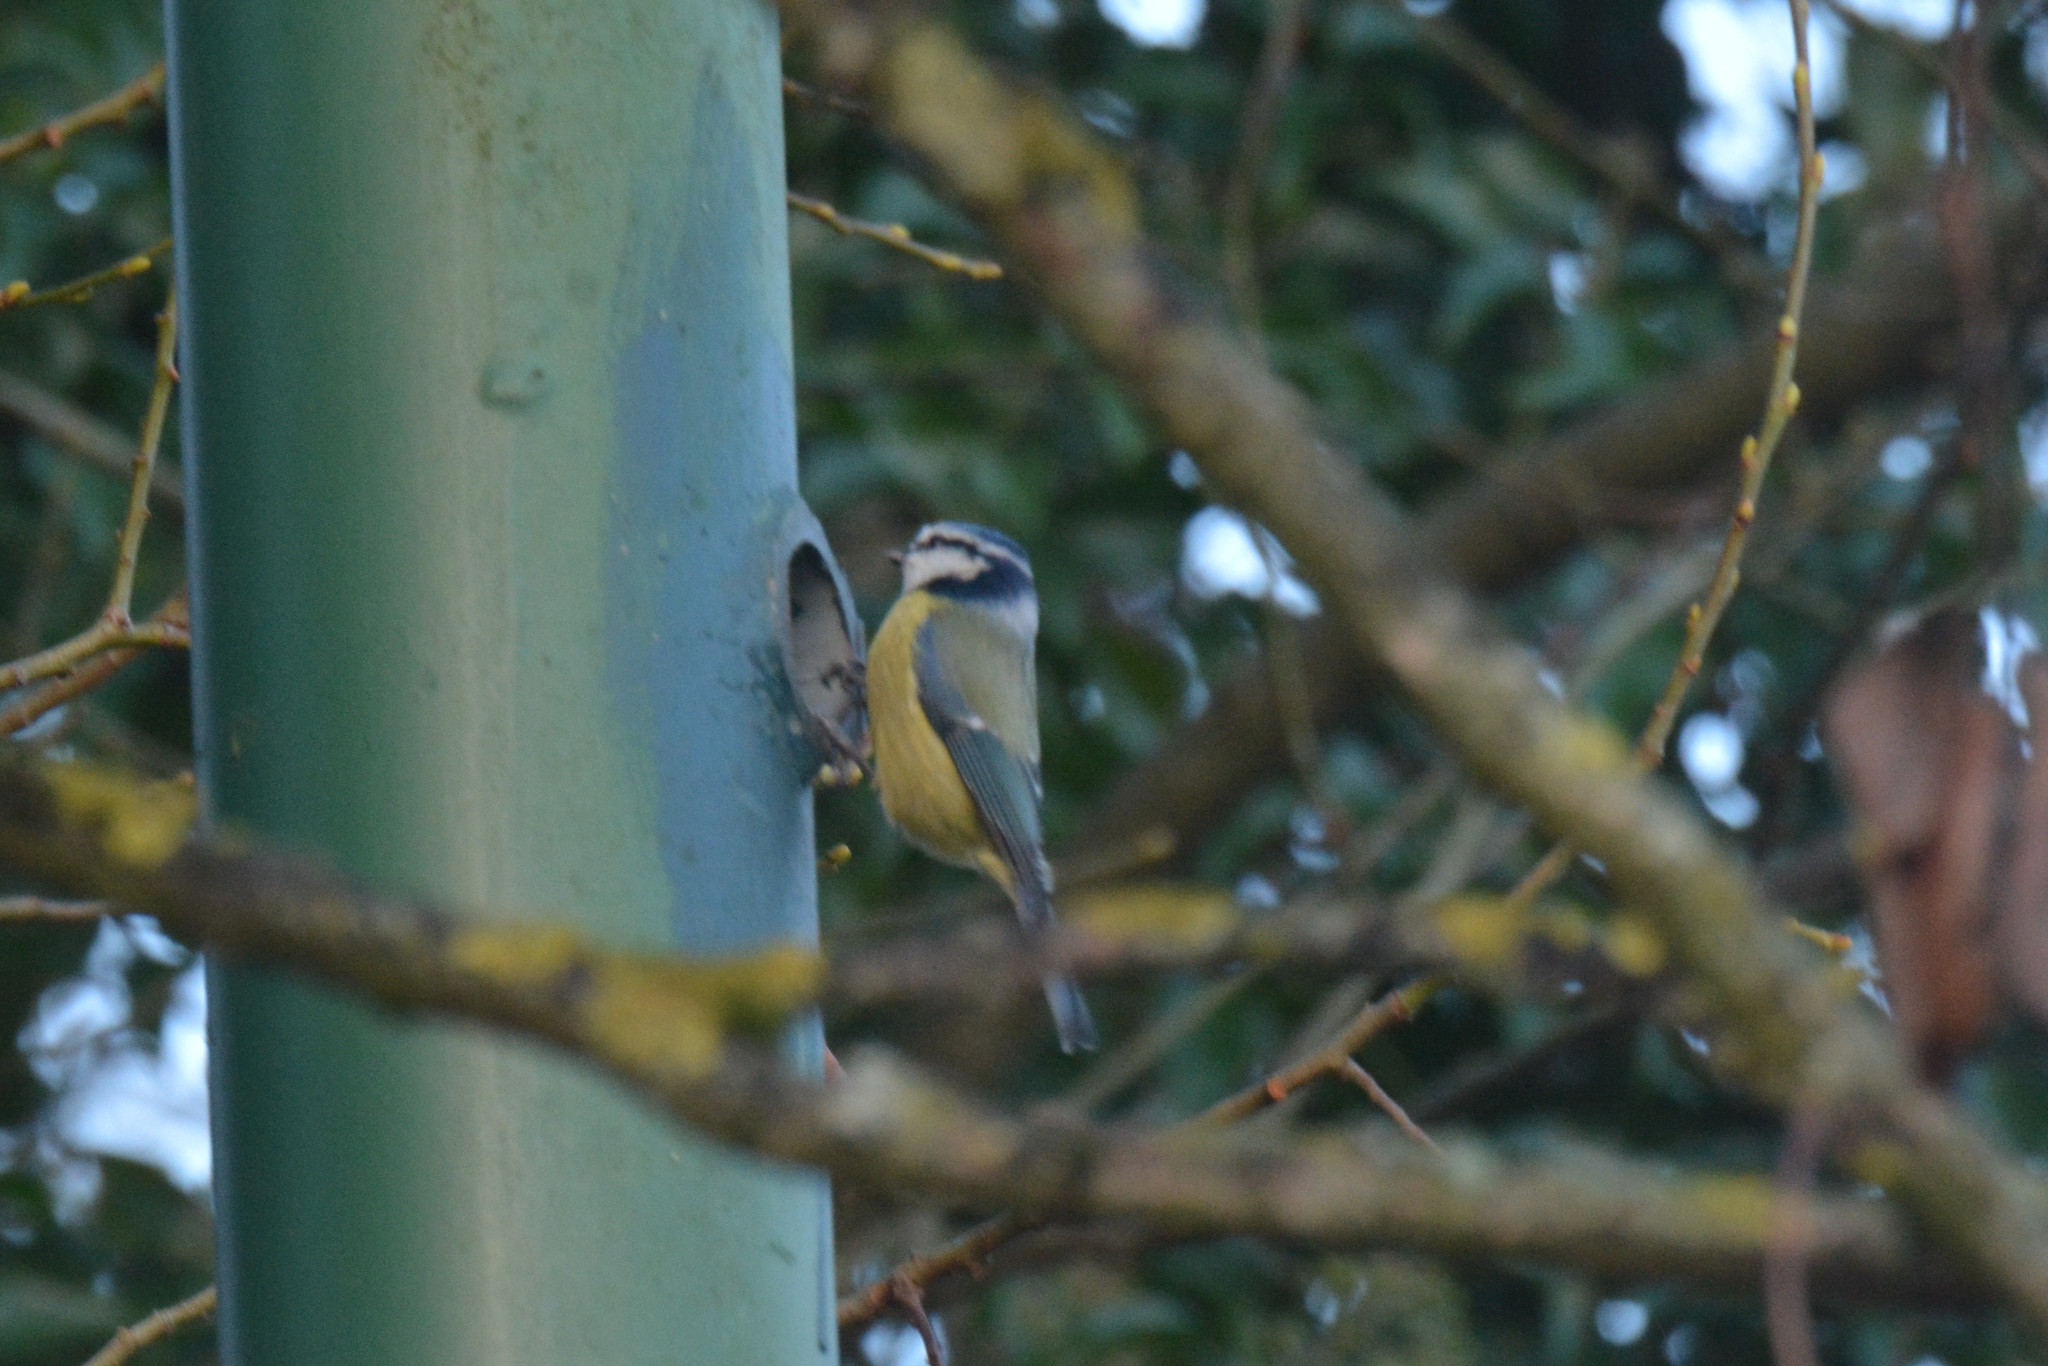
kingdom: Animalia
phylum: Chordata
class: Aves
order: Passeriformes
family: Paridae
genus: Cyanistes
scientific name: Cyanistes caeruleus
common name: Eurasian blue tit
